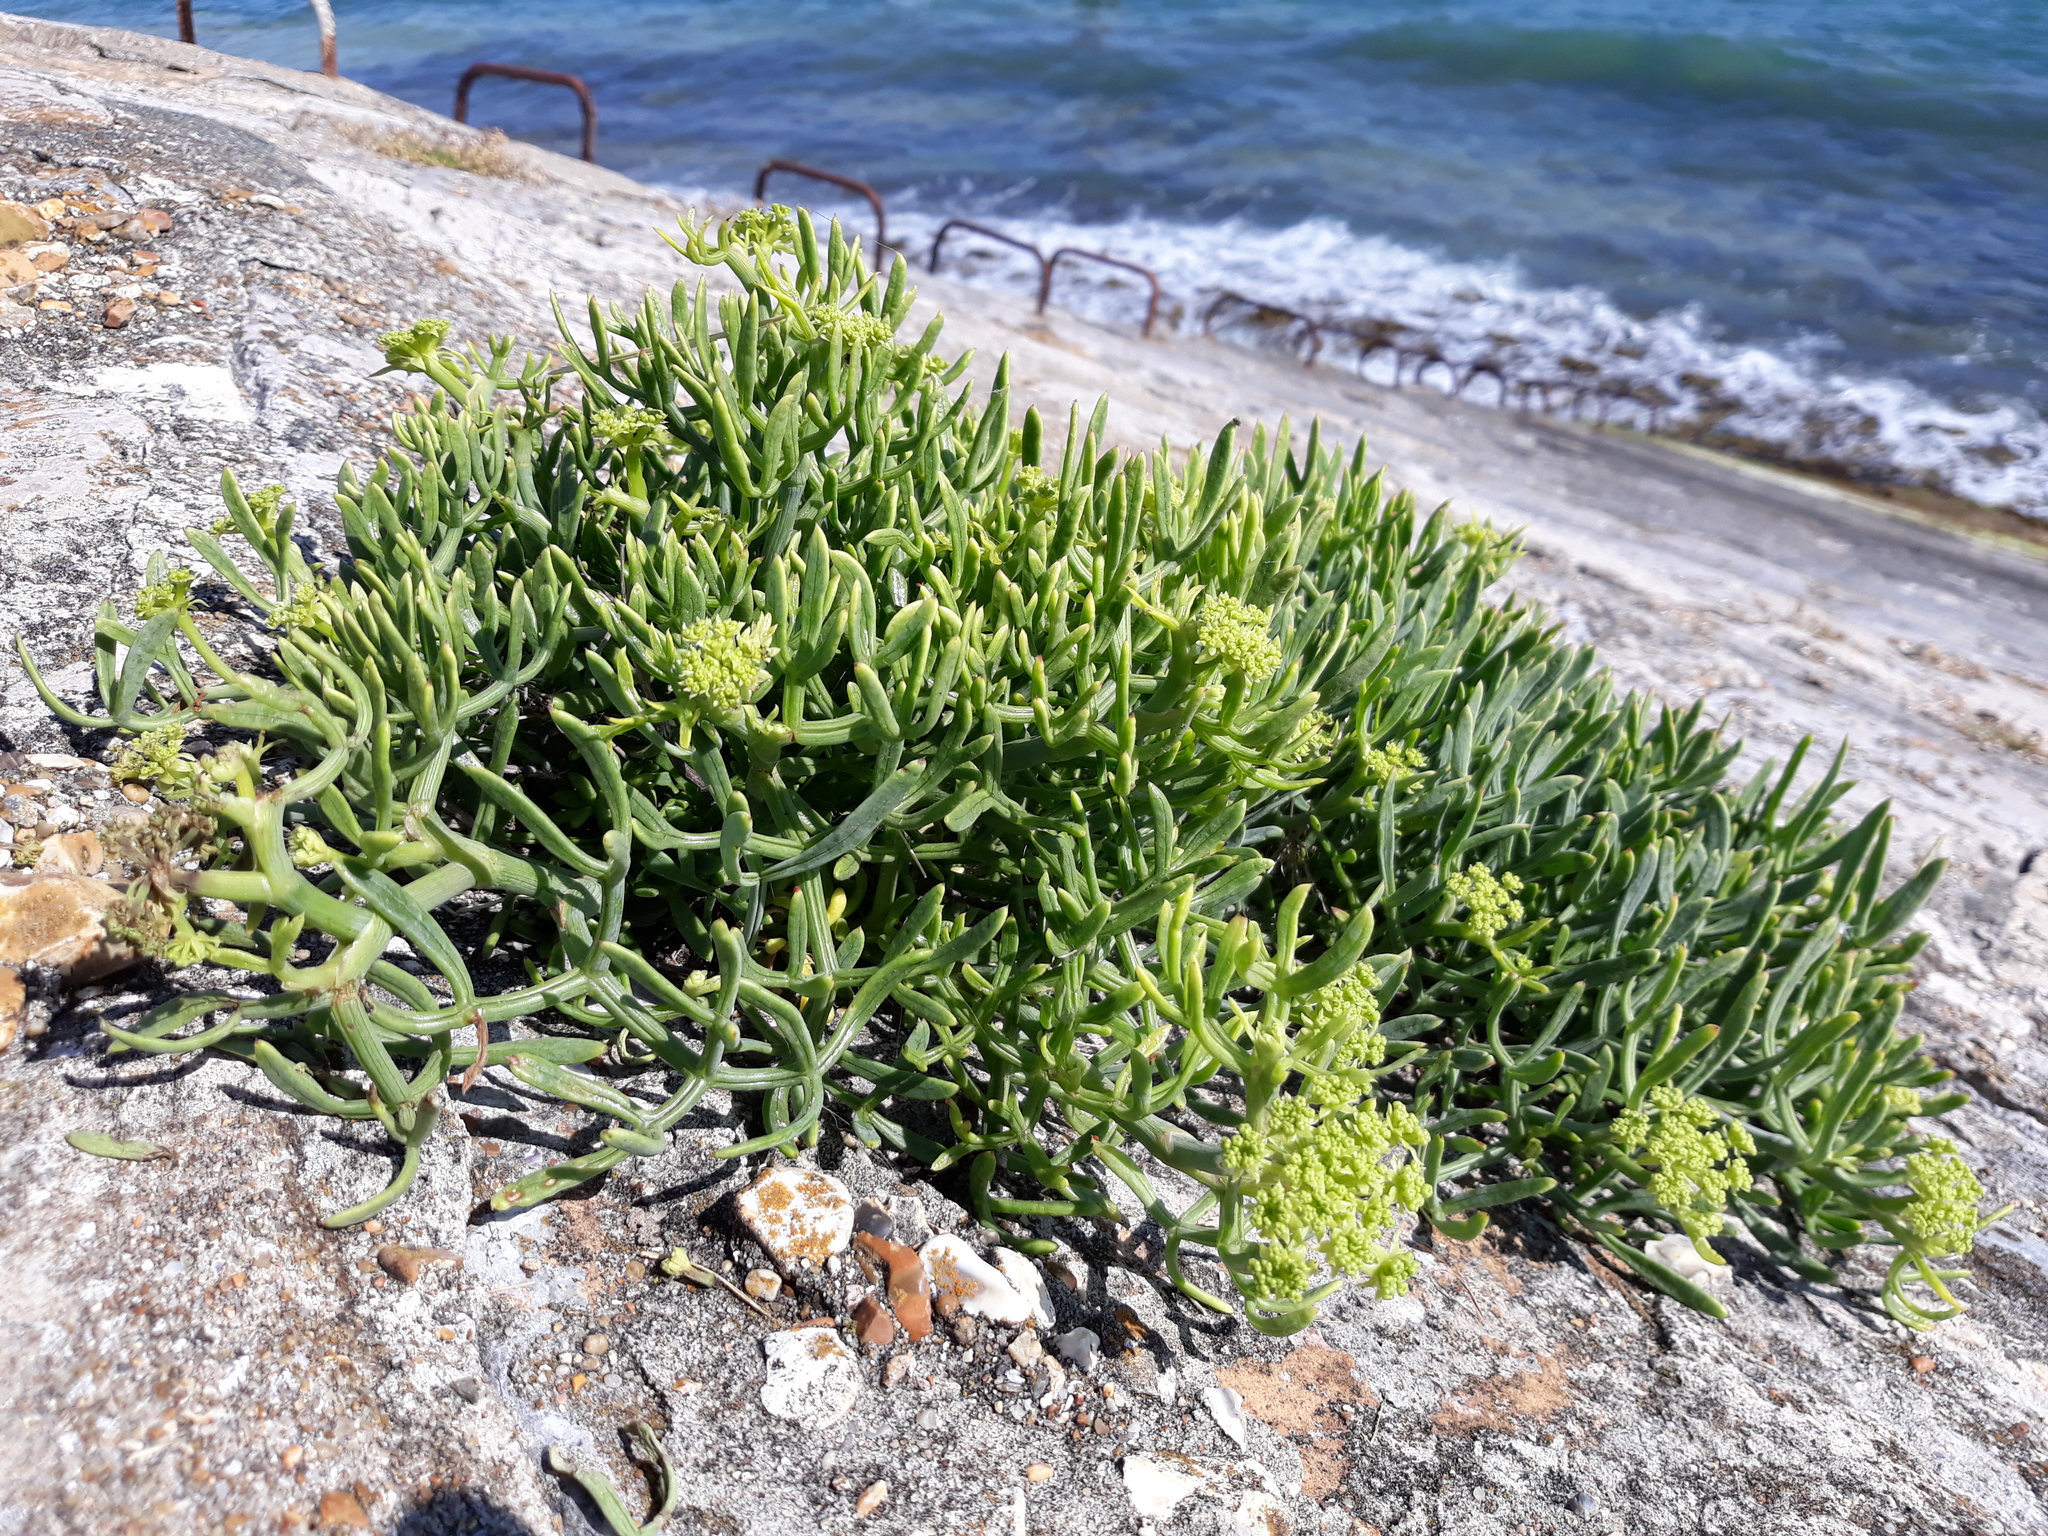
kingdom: Plantae
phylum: Tracheophyta
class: Magnoliopsida
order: Apiales
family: Apiaceae
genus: Crithmum
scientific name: Crithmum maritimum
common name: Rock samphire
